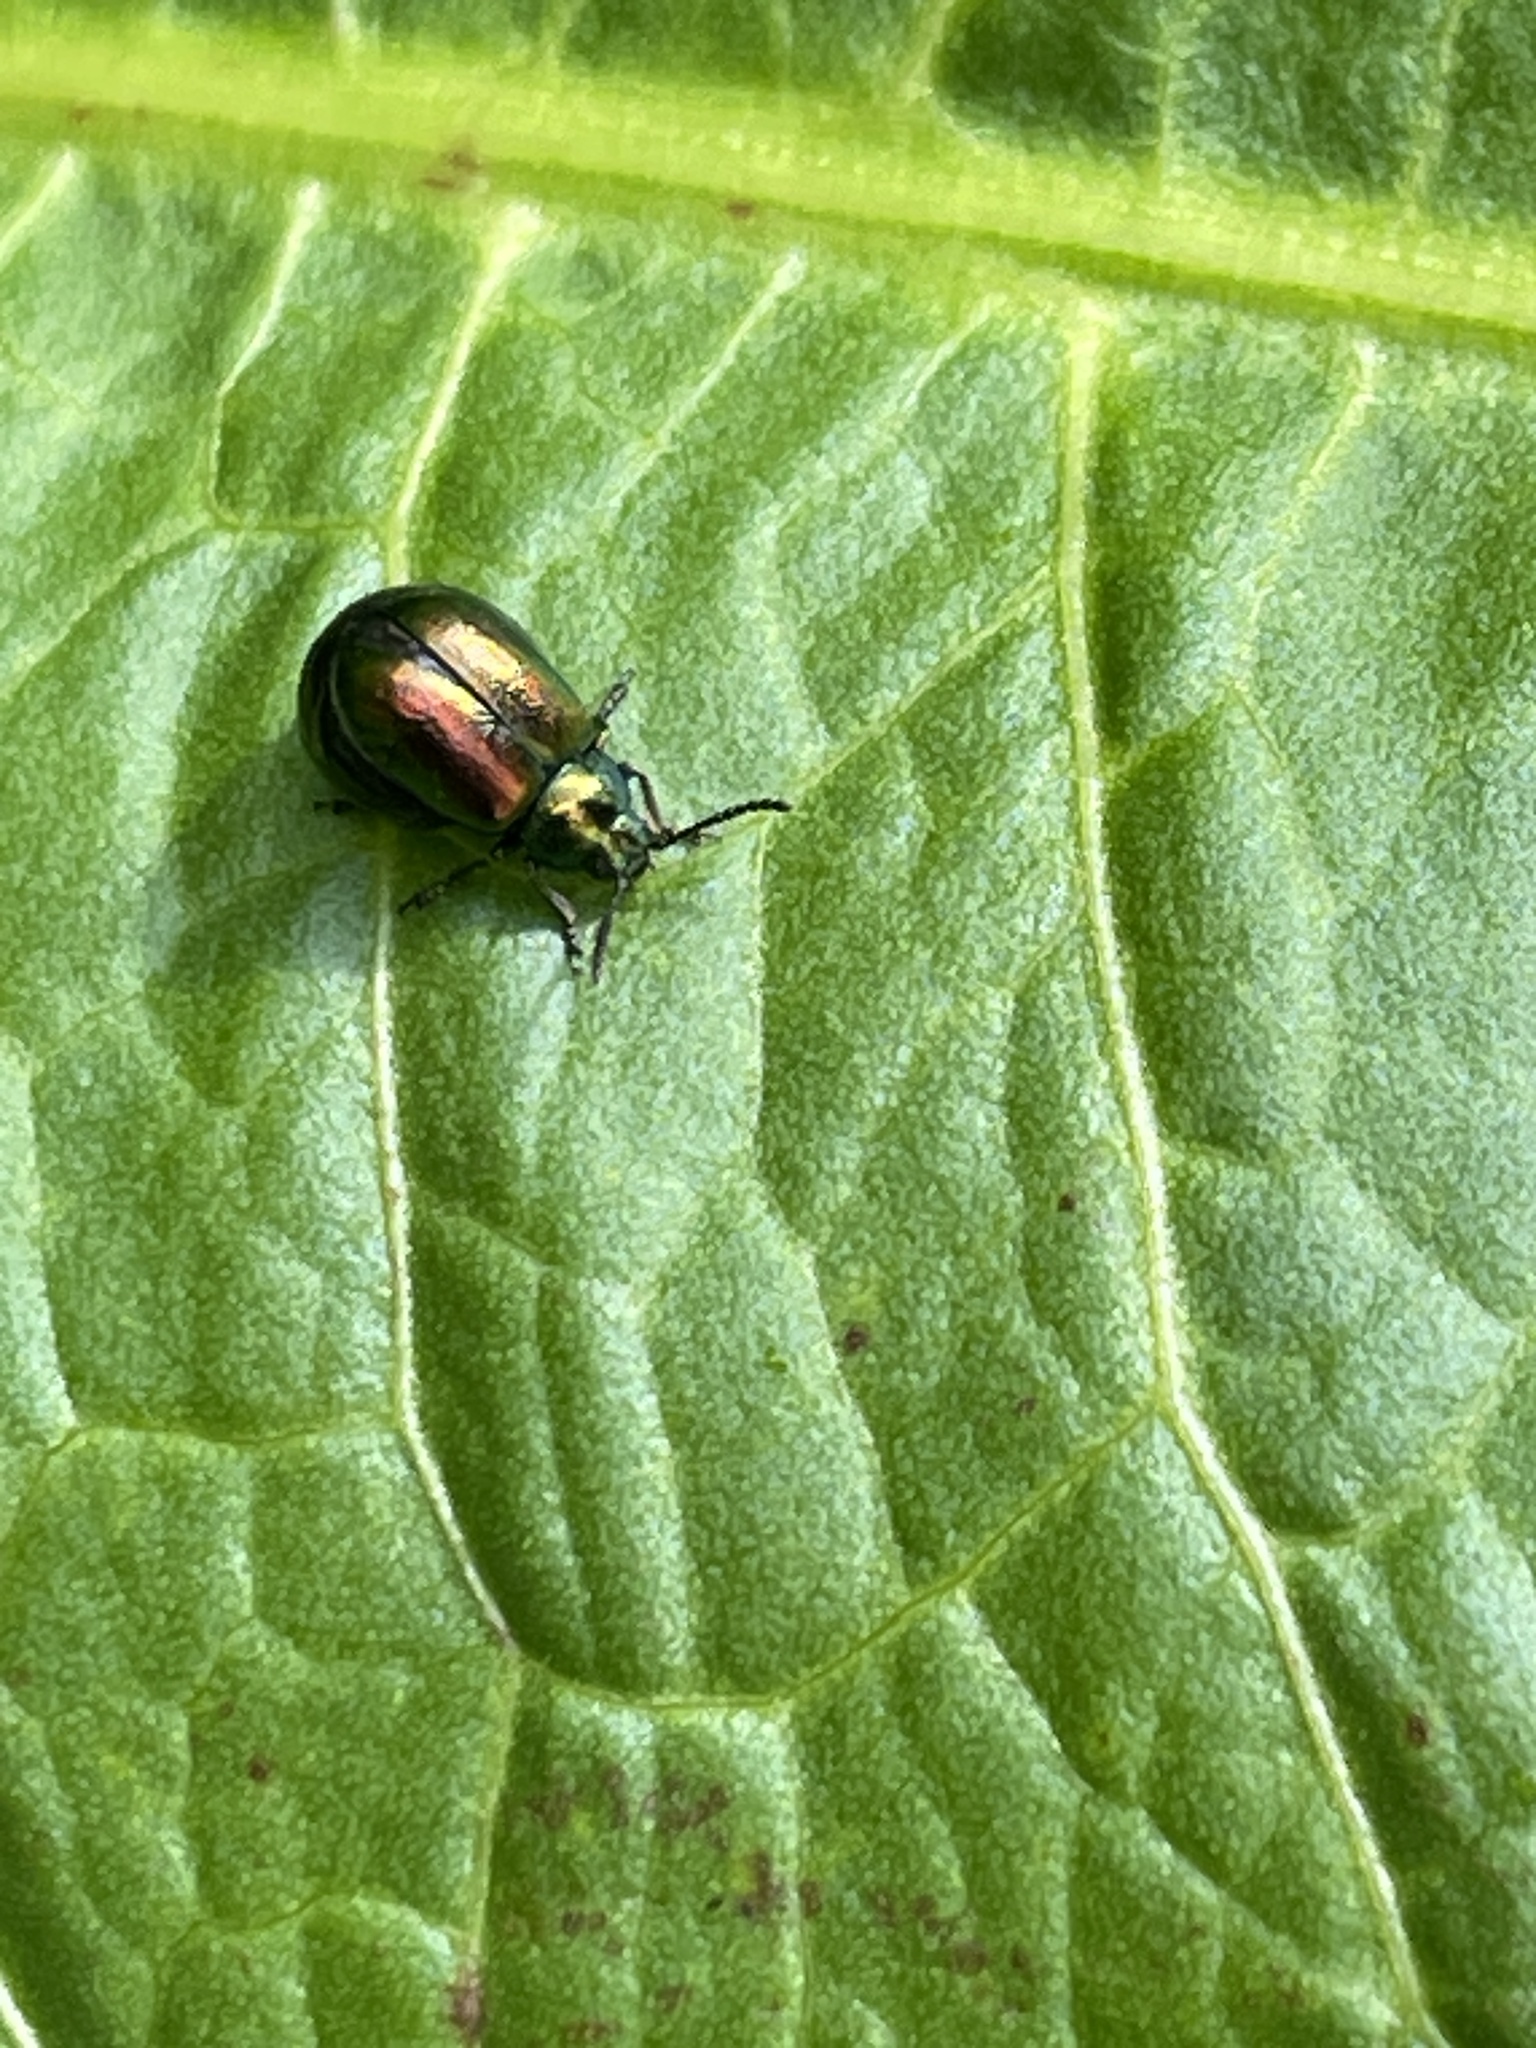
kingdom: Animalia
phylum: Arthropoda
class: Insecta
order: Coleoptera
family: Chrysomelidae
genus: Gastrophysa
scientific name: Gastrophysa viridula
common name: Green dock beetle
